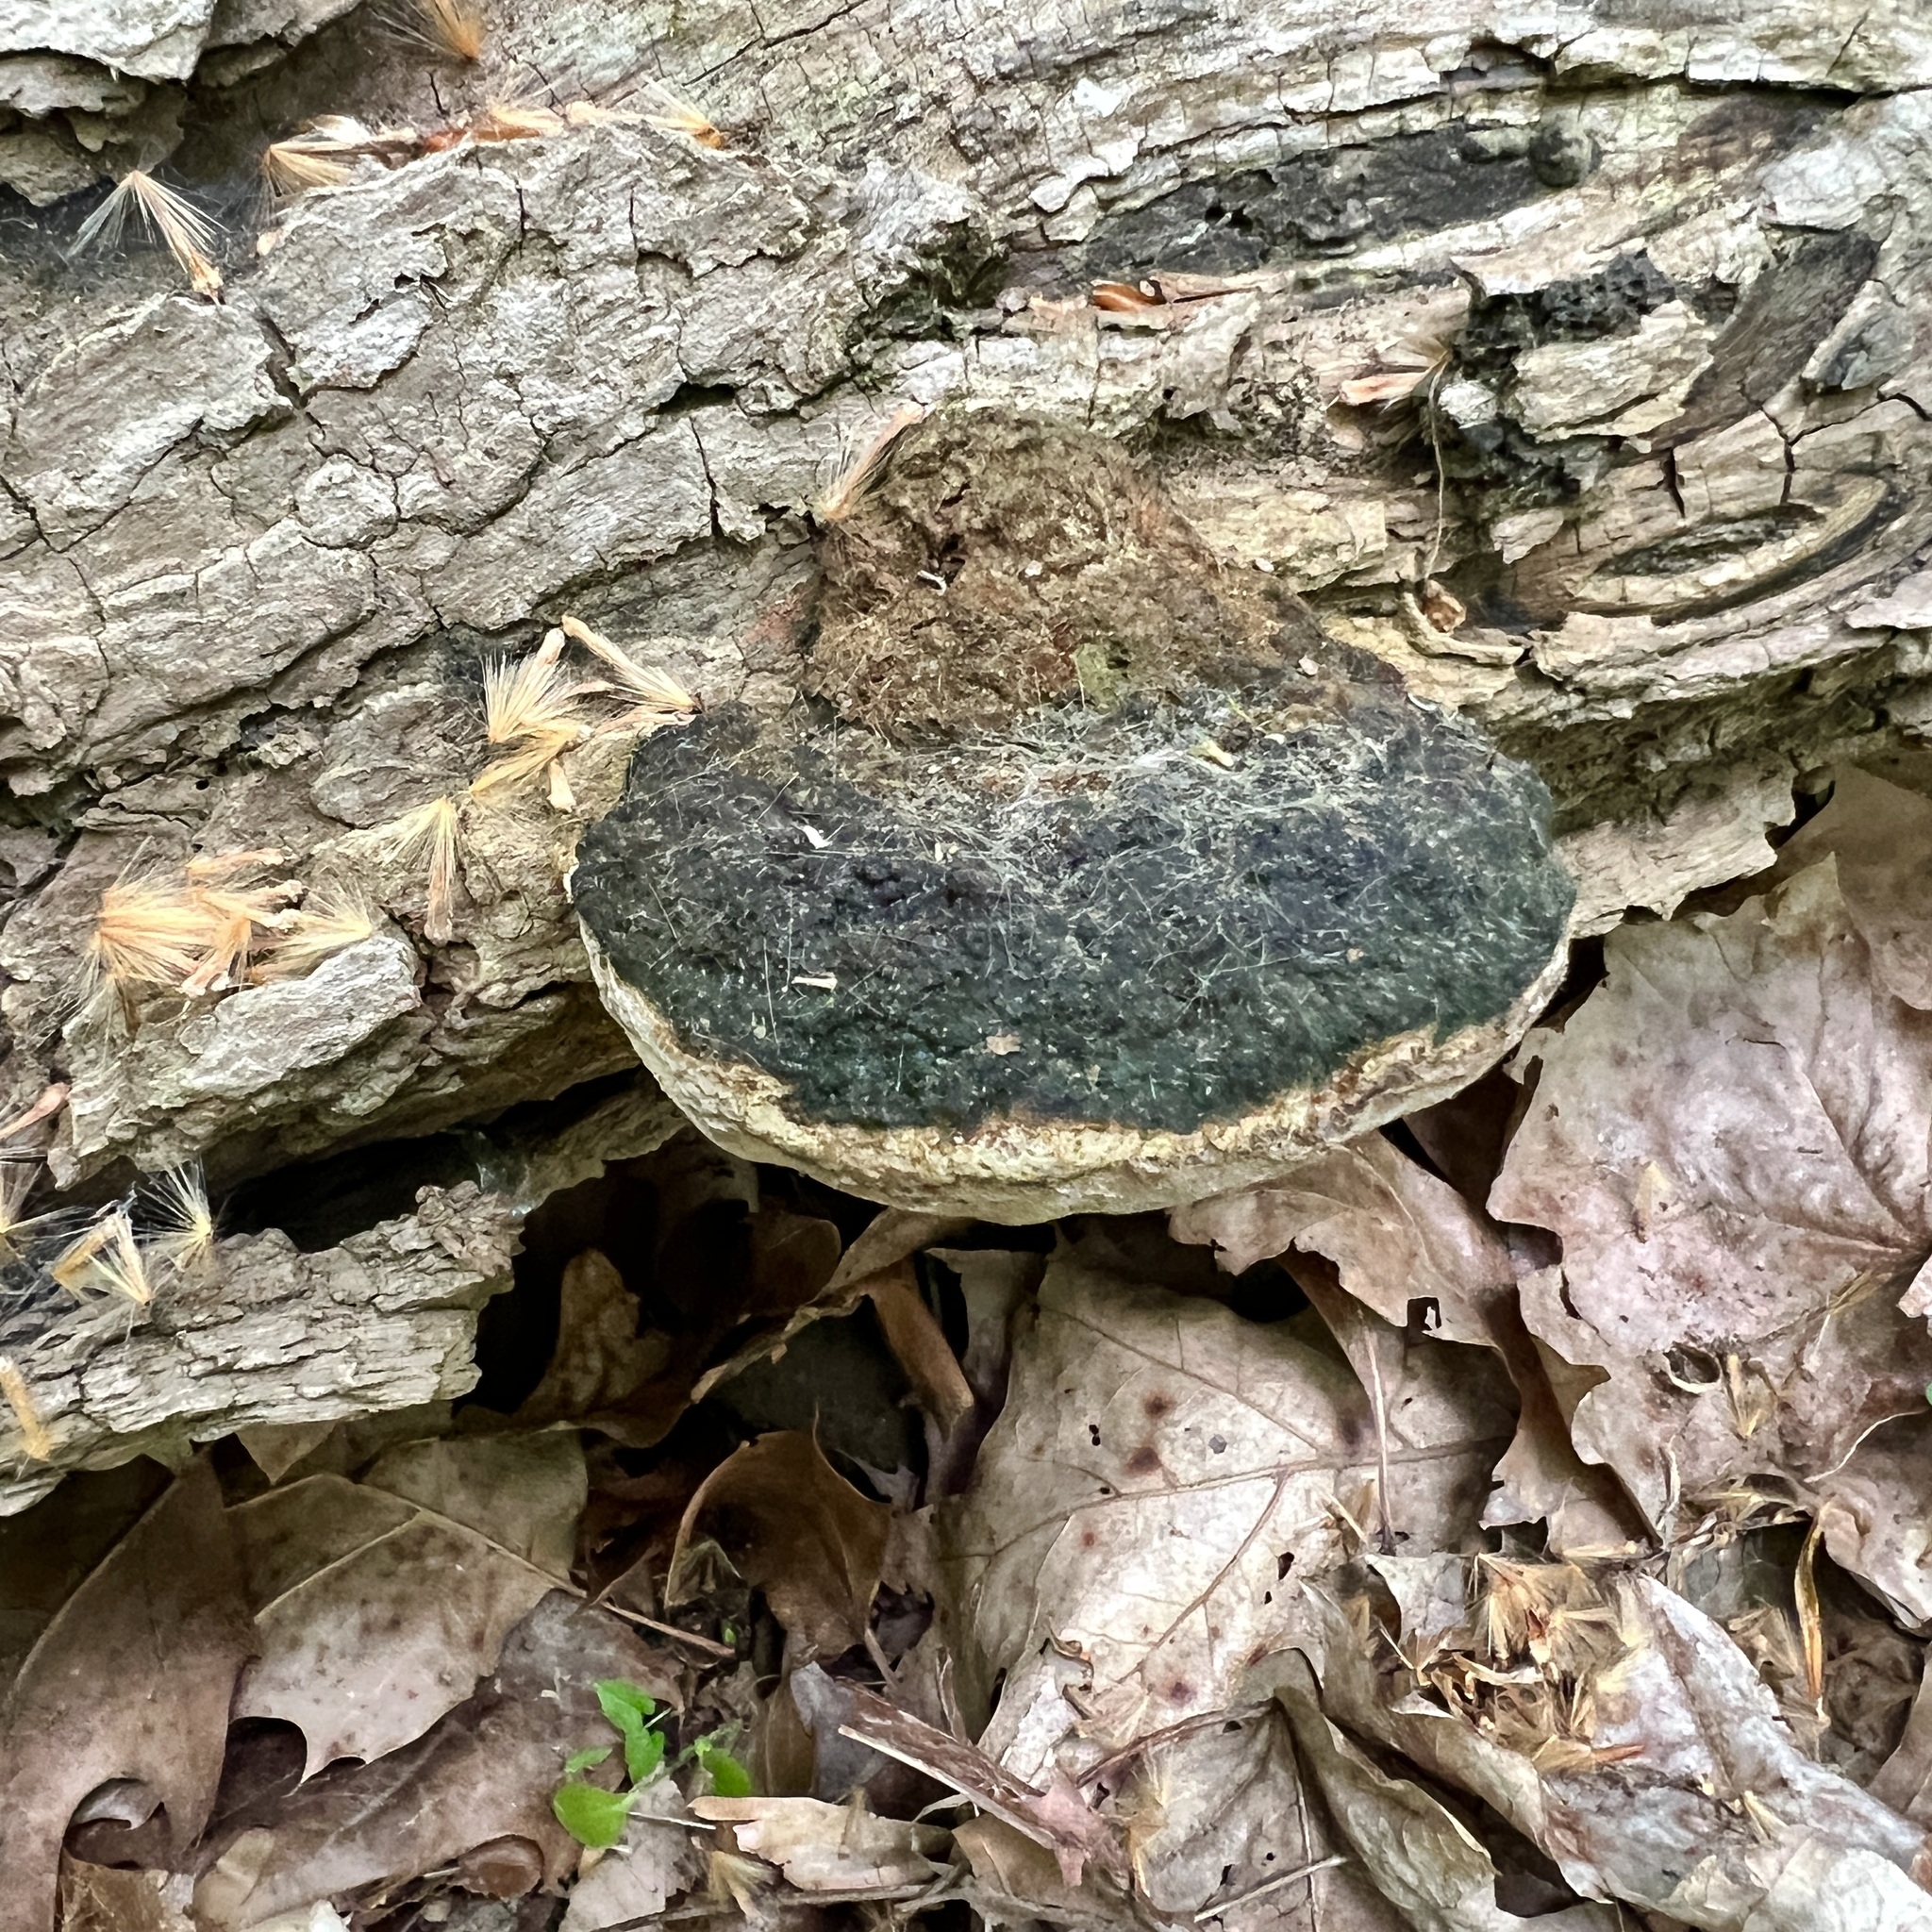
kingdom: Fungi
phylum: Basidiomycota
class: Agaricomycetes
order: Hymenochaetales
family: Hymenochaetaceae
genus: Phellinus
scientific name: Phellinus robiniae
